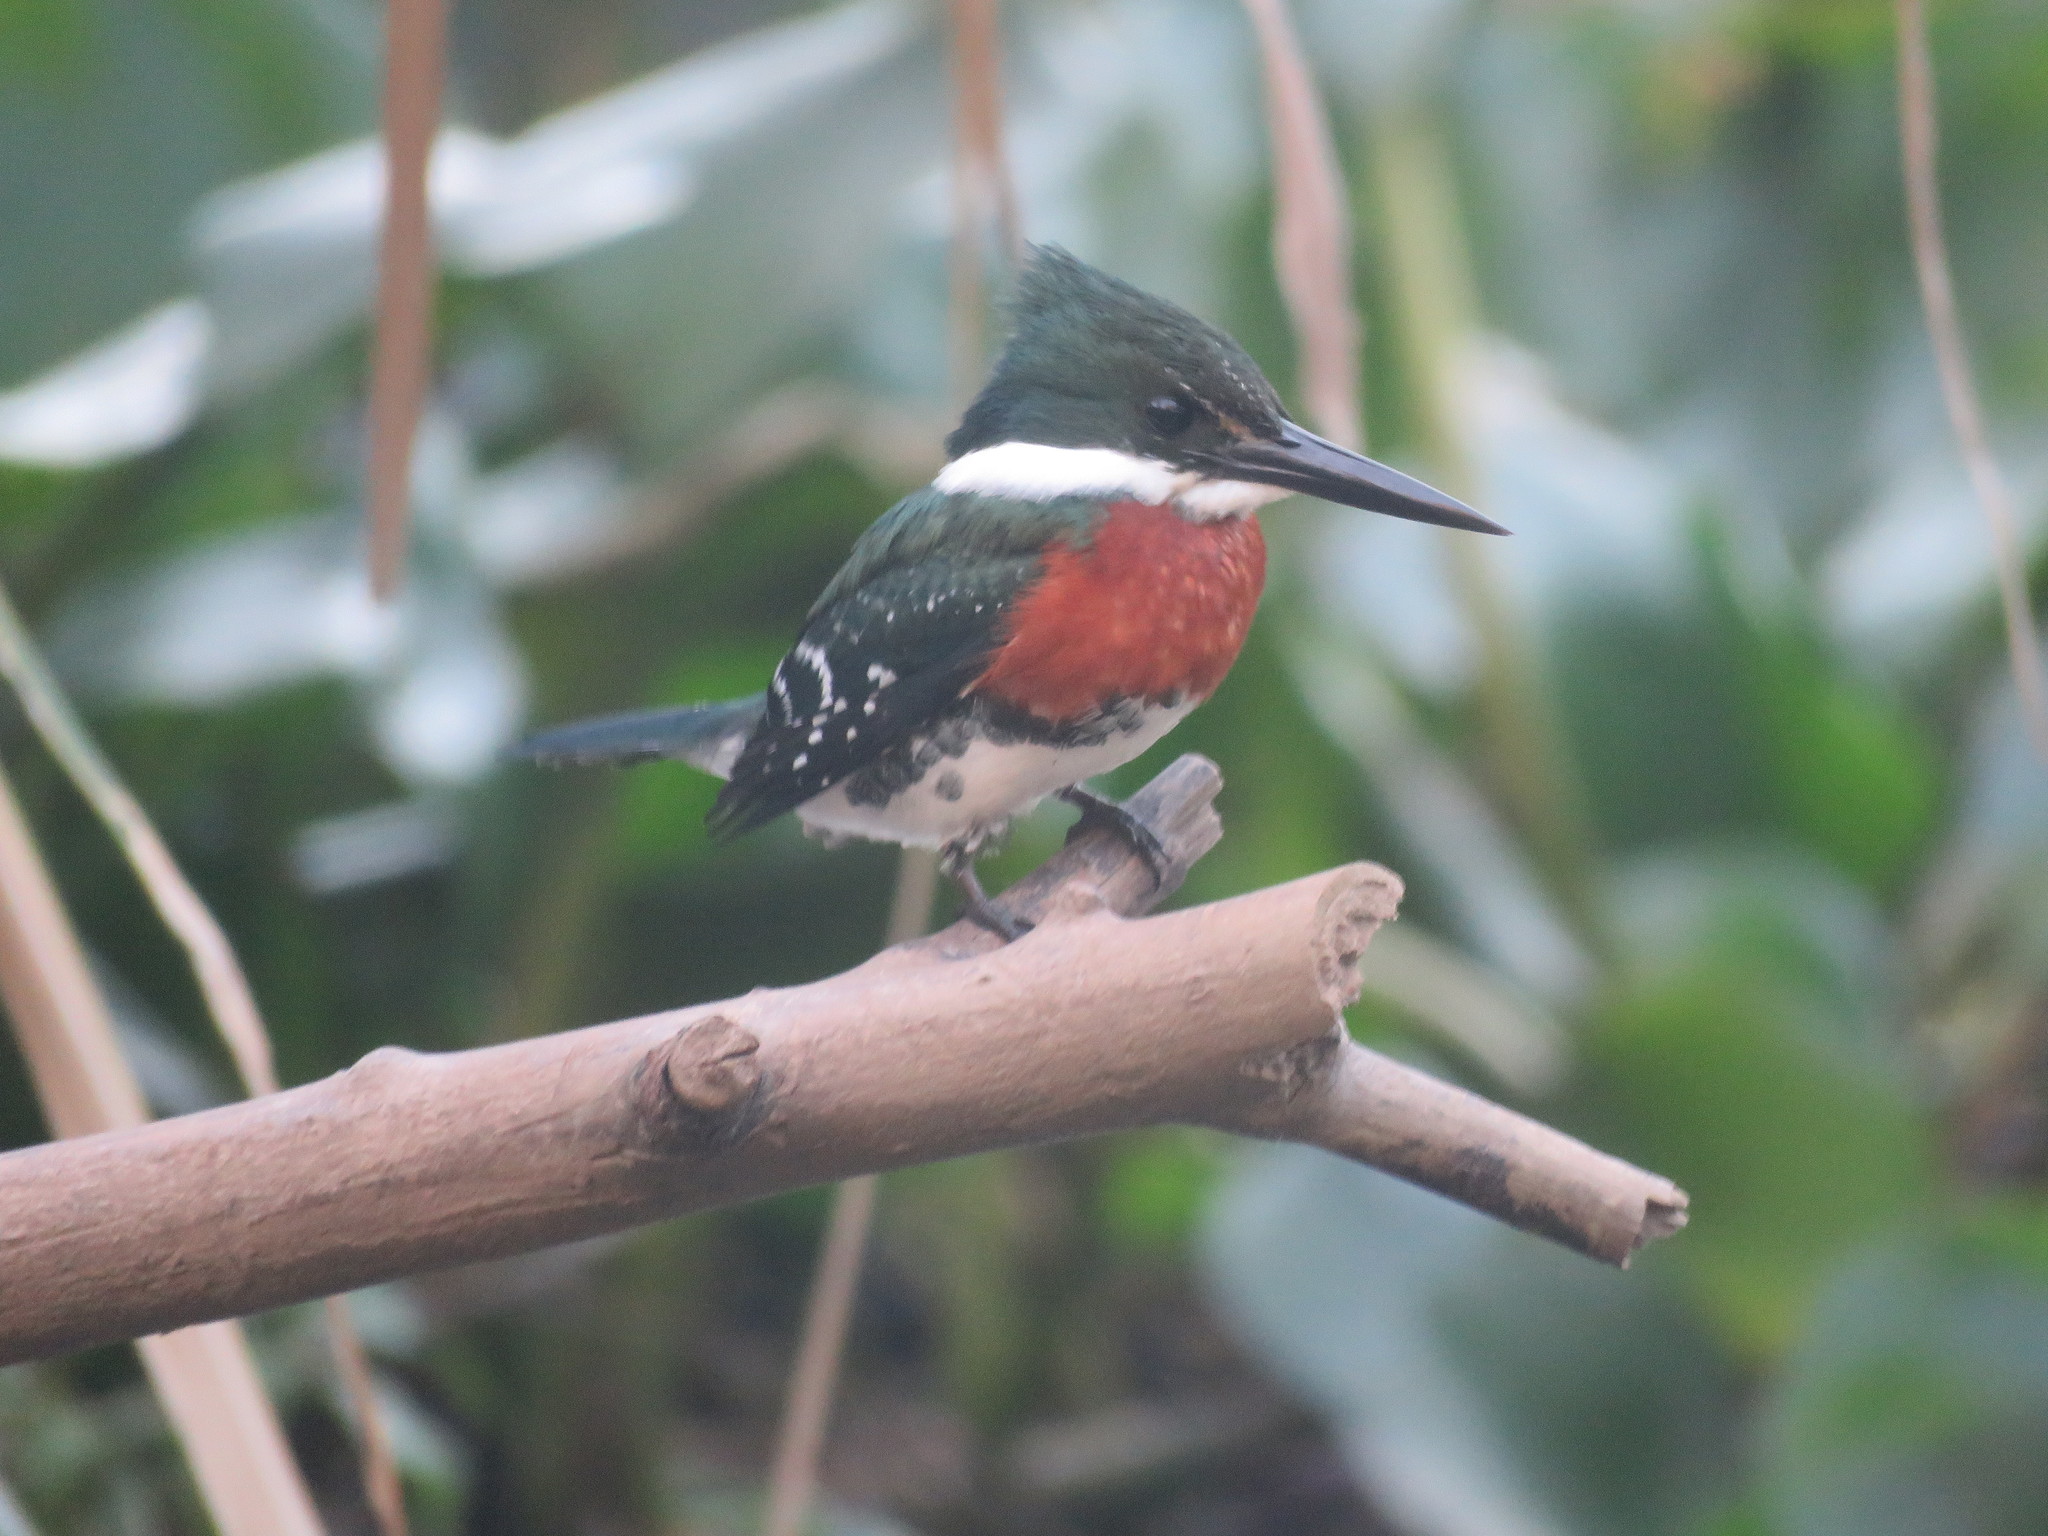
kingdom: Animalia
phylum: Chordata
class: Aves
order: Coraciiformes
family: Alcedinidae
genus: Chloroceryle
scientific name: Chloroceryle americana
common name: Green kingfisher
